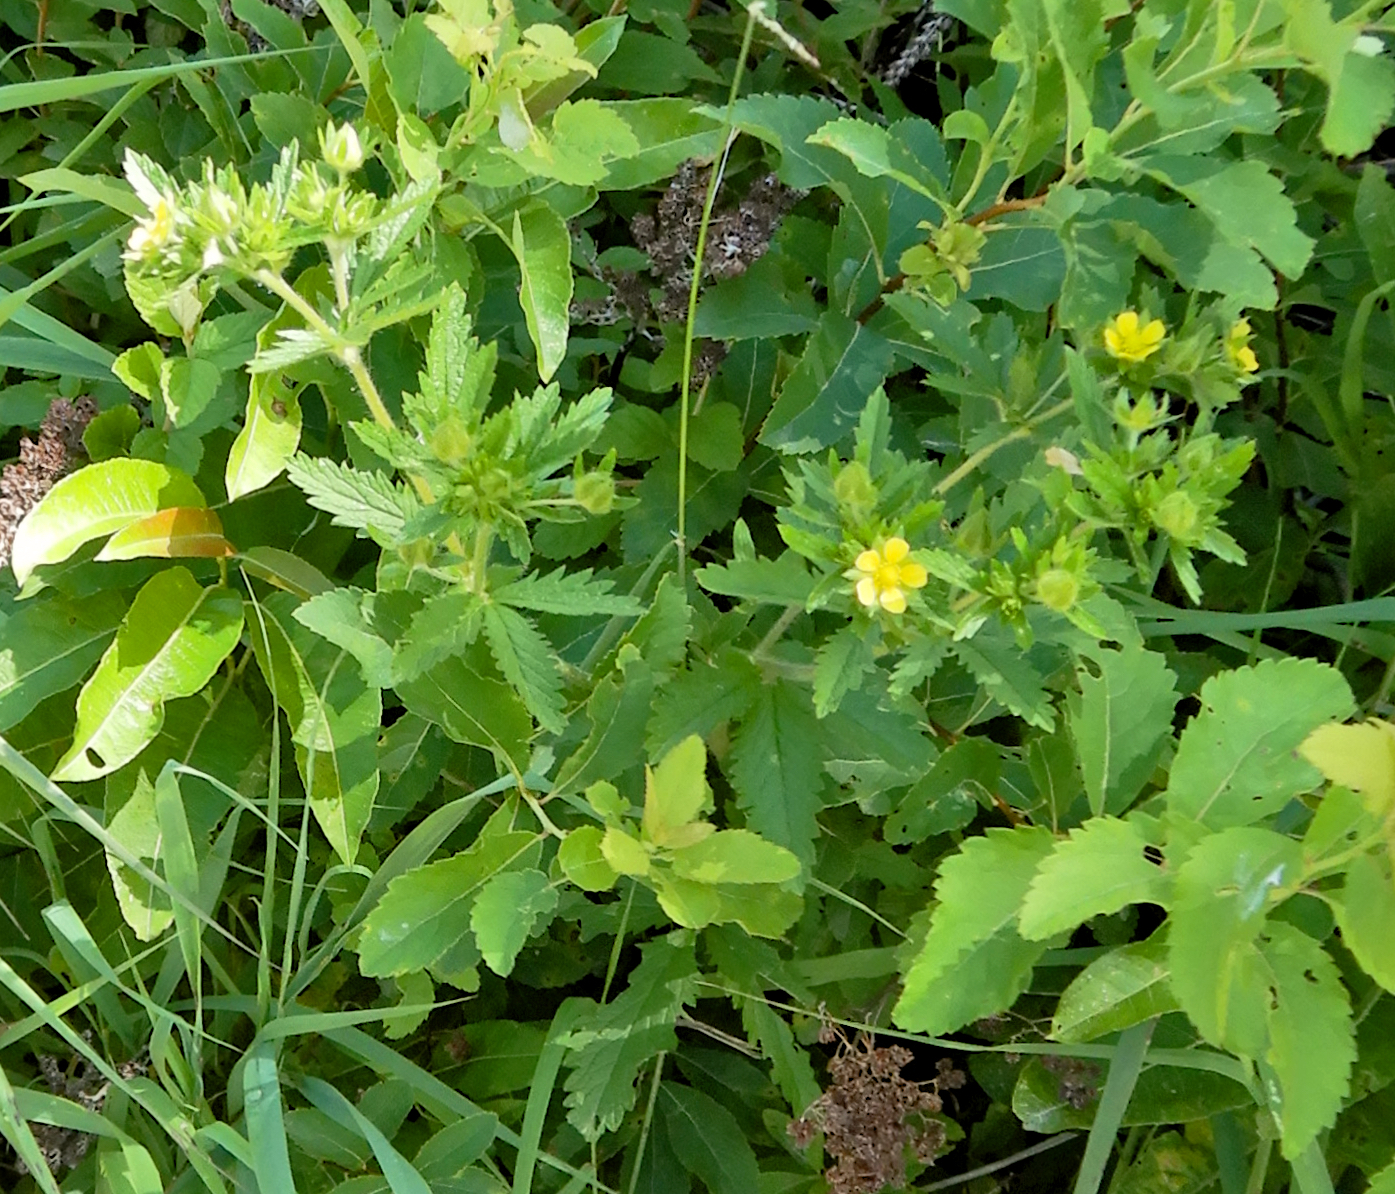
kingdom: Plantae
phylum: Tracheophyta
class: Magnoliopsida
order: Rosales
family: Rosaceae
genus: Potentilla
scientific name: Potentilla norvegica
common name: Ternate-leaved cinquefoil
